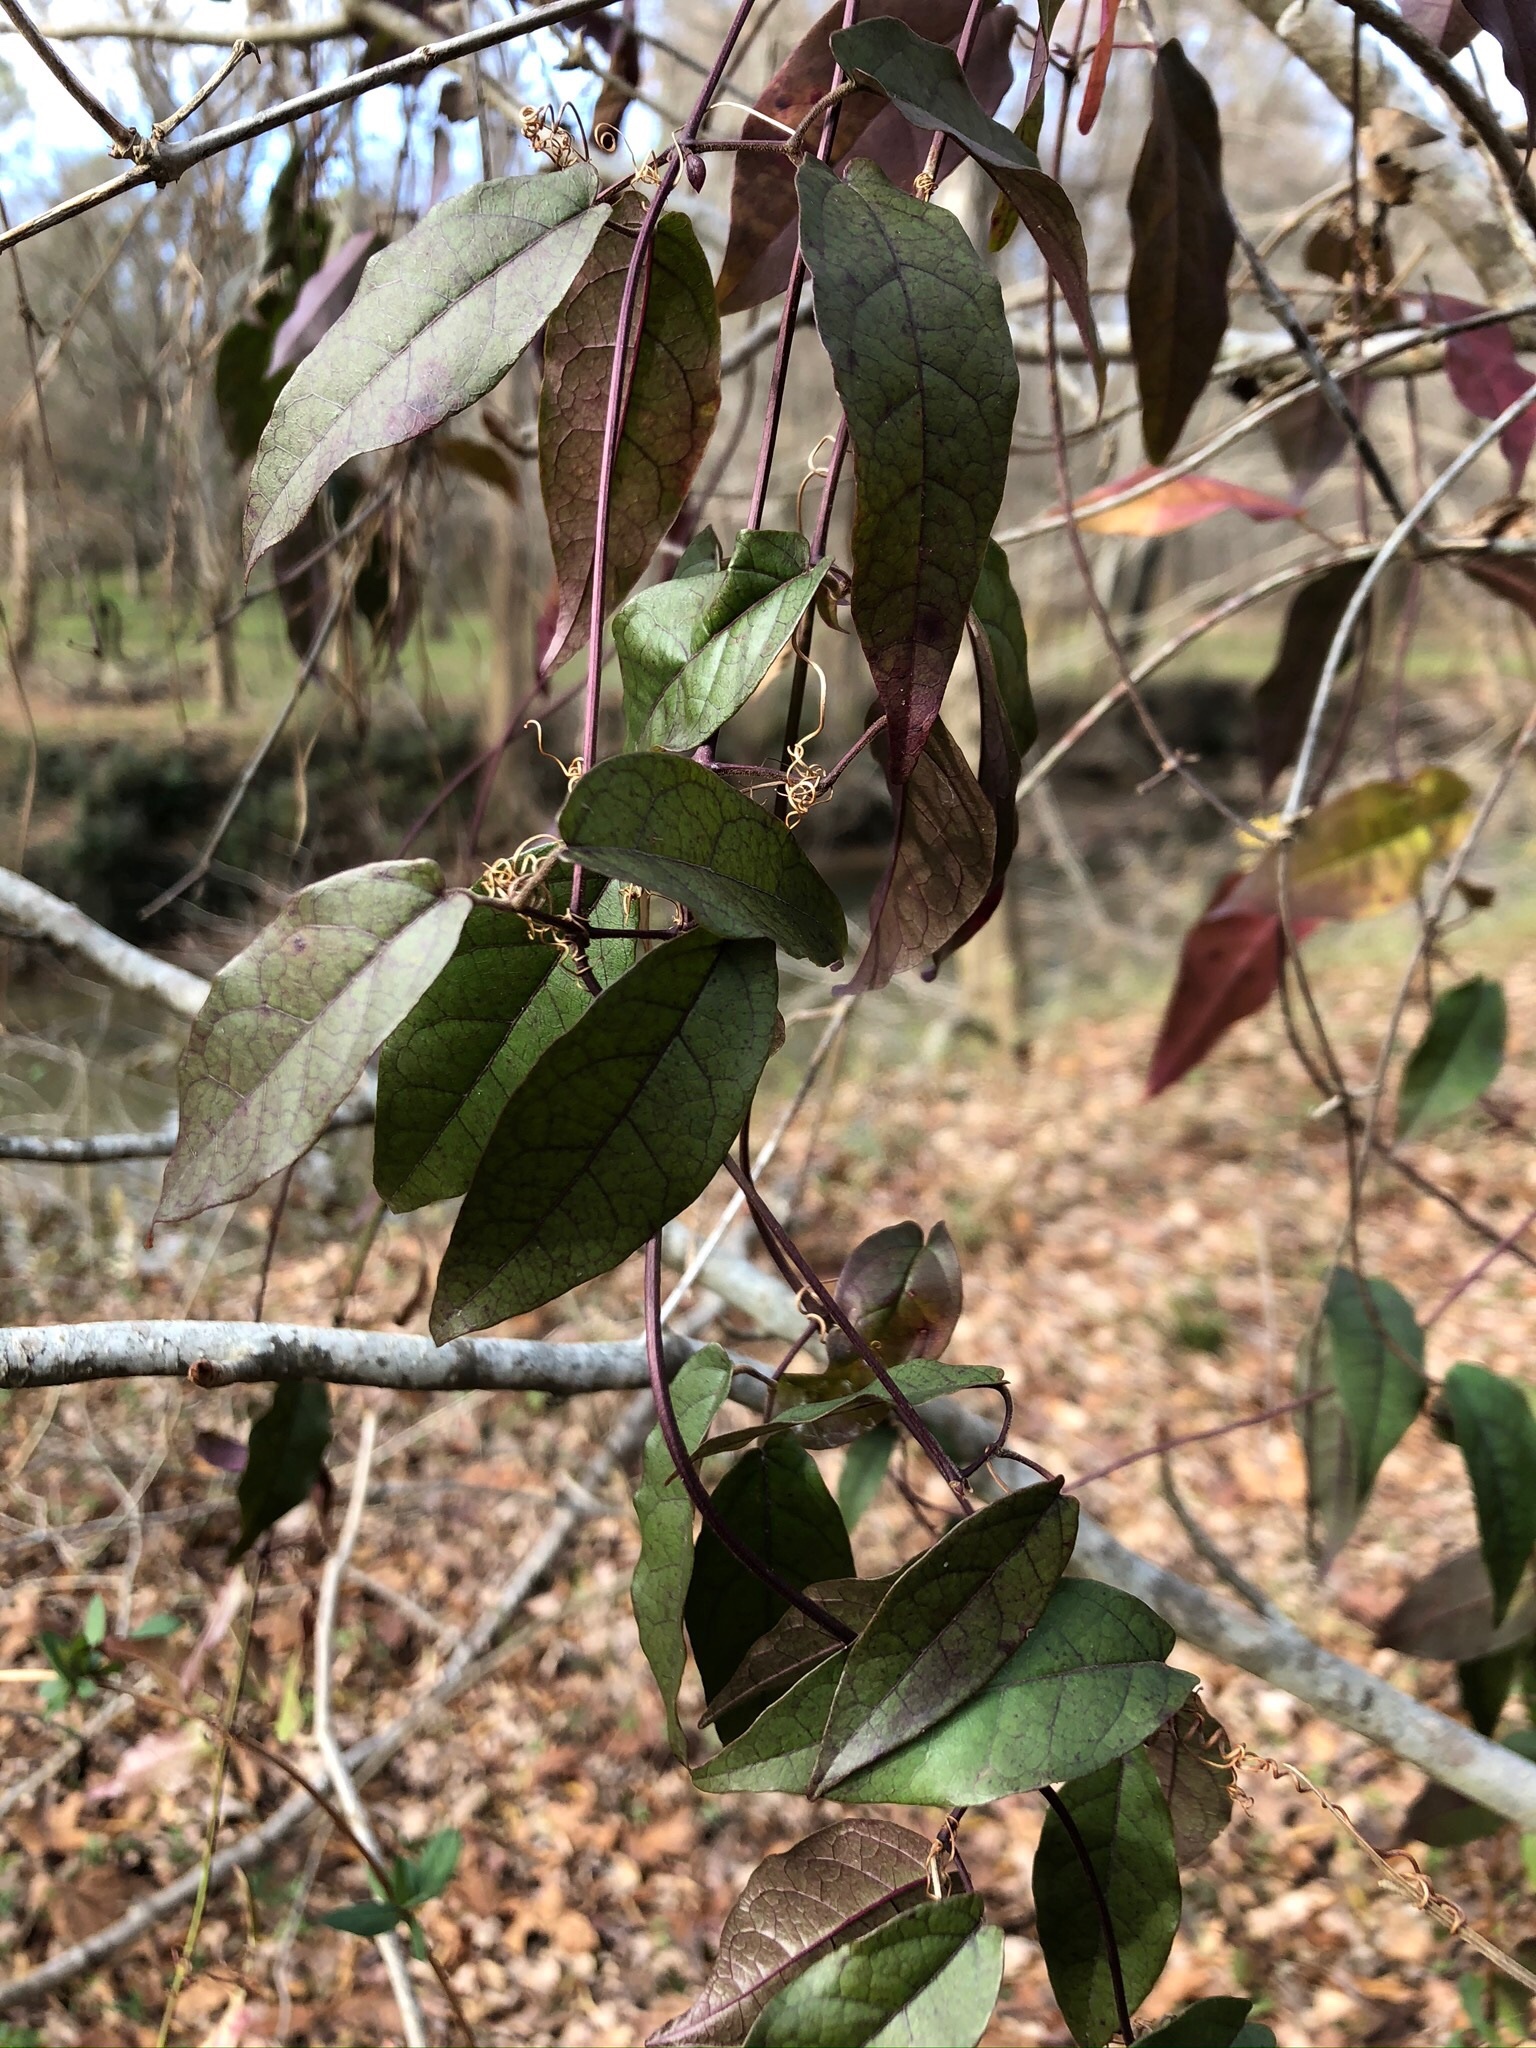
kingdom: Plantae
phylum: Tracheophyta
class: Magnoliopsida
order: Lamiales
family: Bignoniaceae
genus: Bignonia
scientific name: Bignonia capreolata
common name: Crossvine
